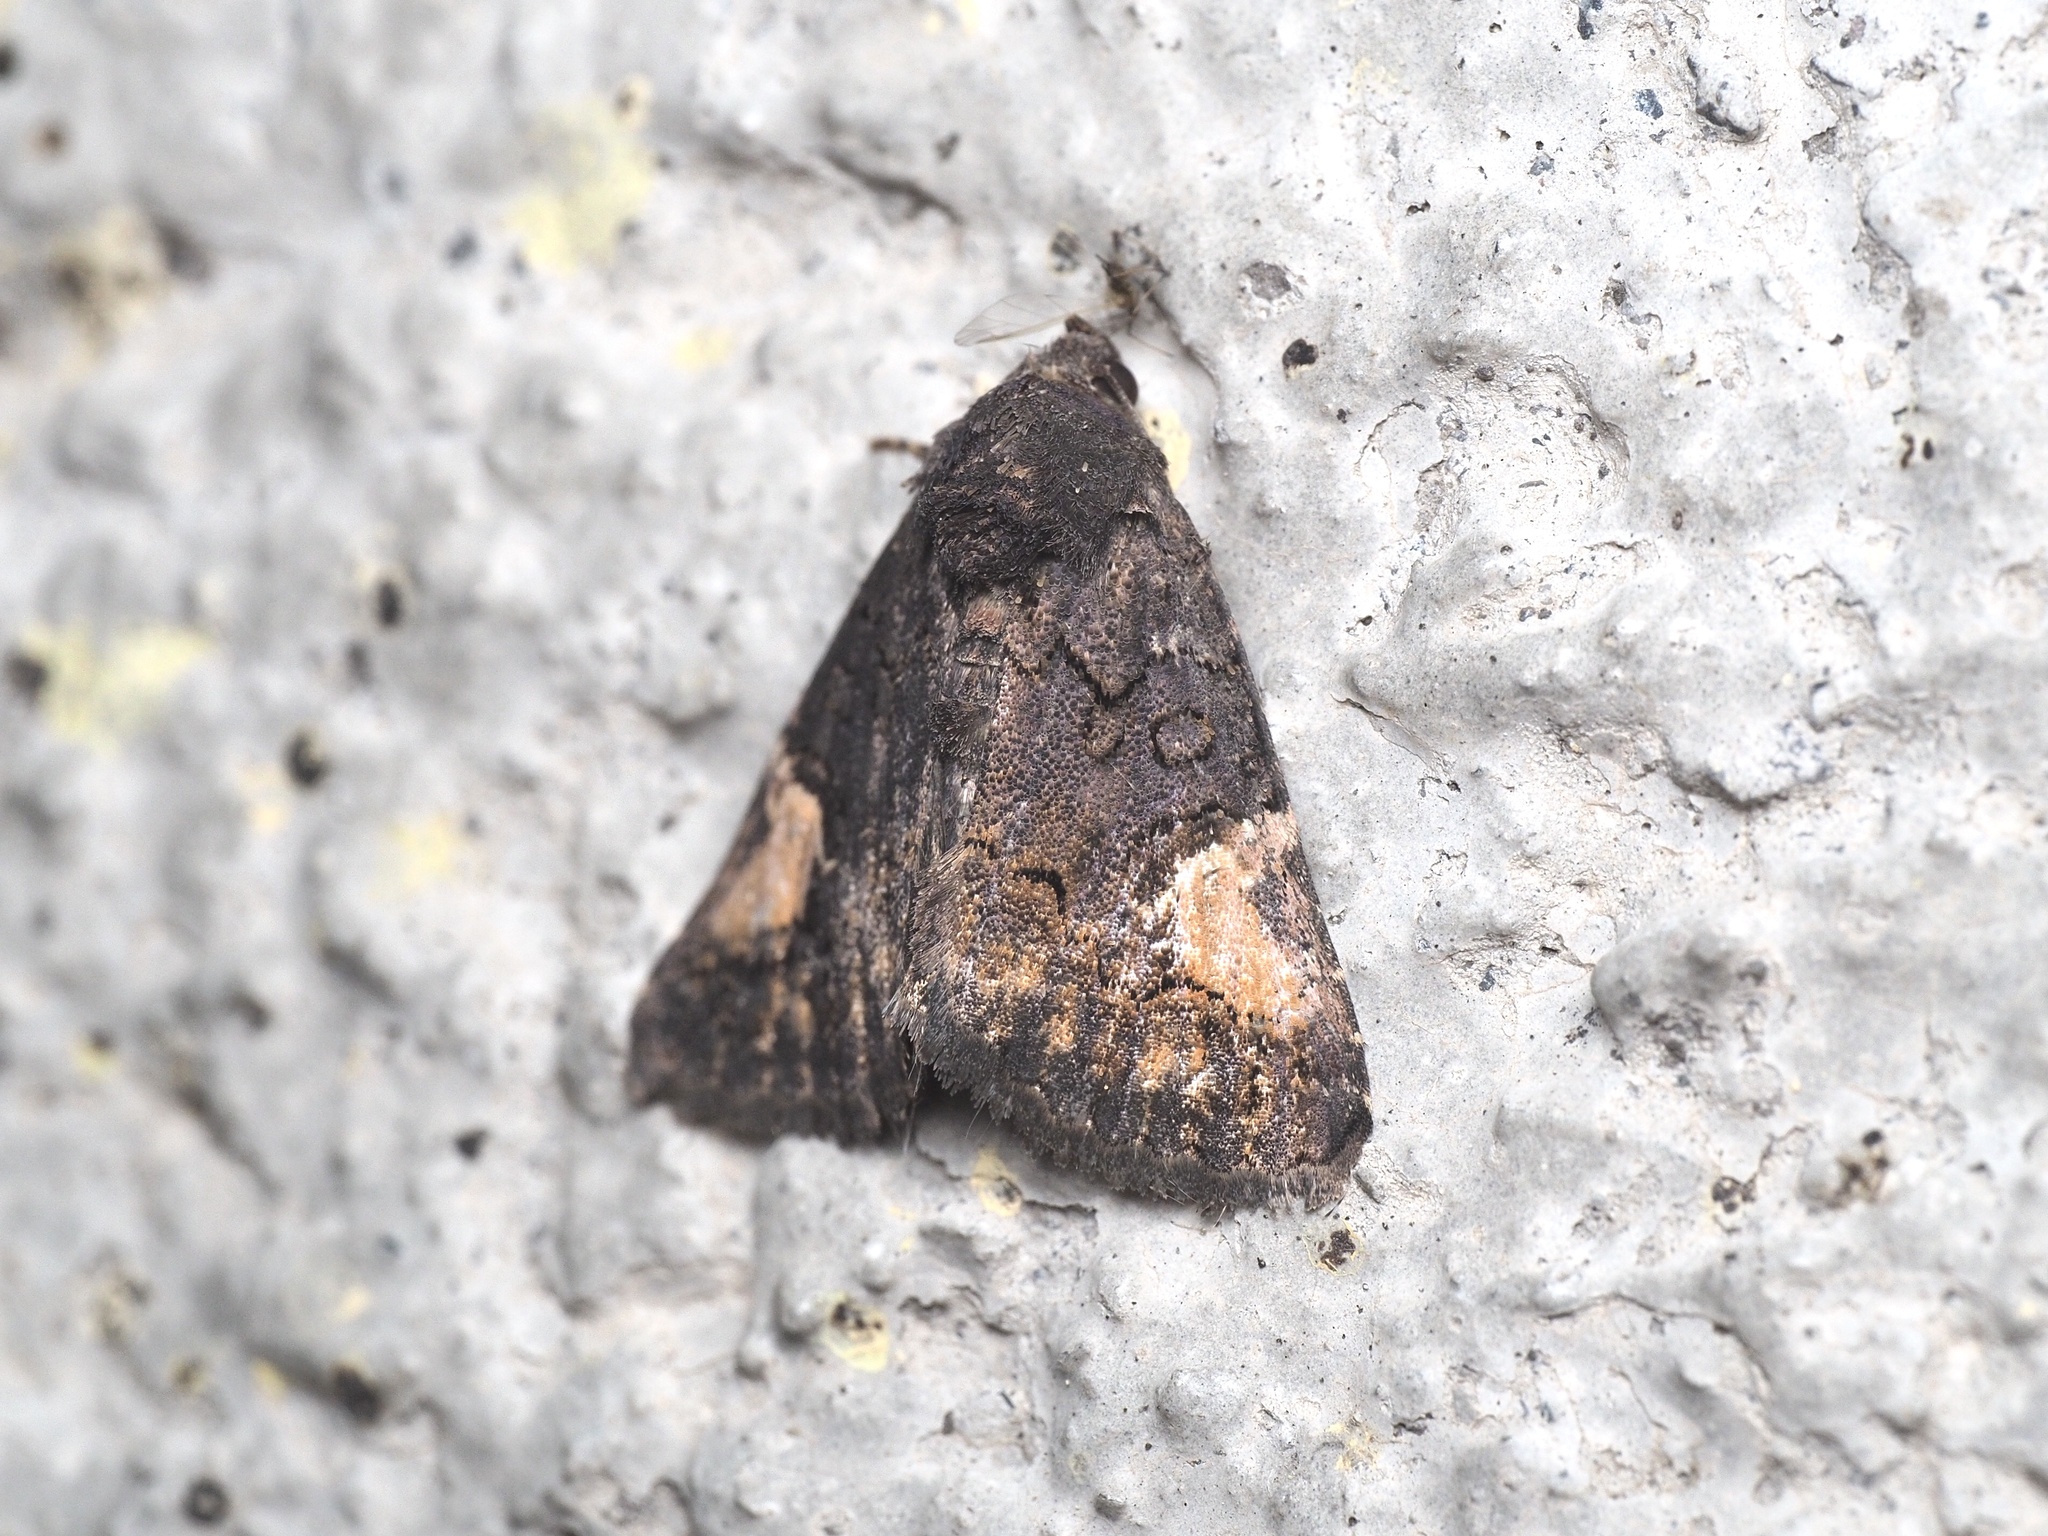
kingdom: Animalia
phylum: Arthropoda
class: Insecta
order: Lepidoptera
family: Noctuidae
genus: Aedia
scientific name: Aedia funesta
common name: The druid
